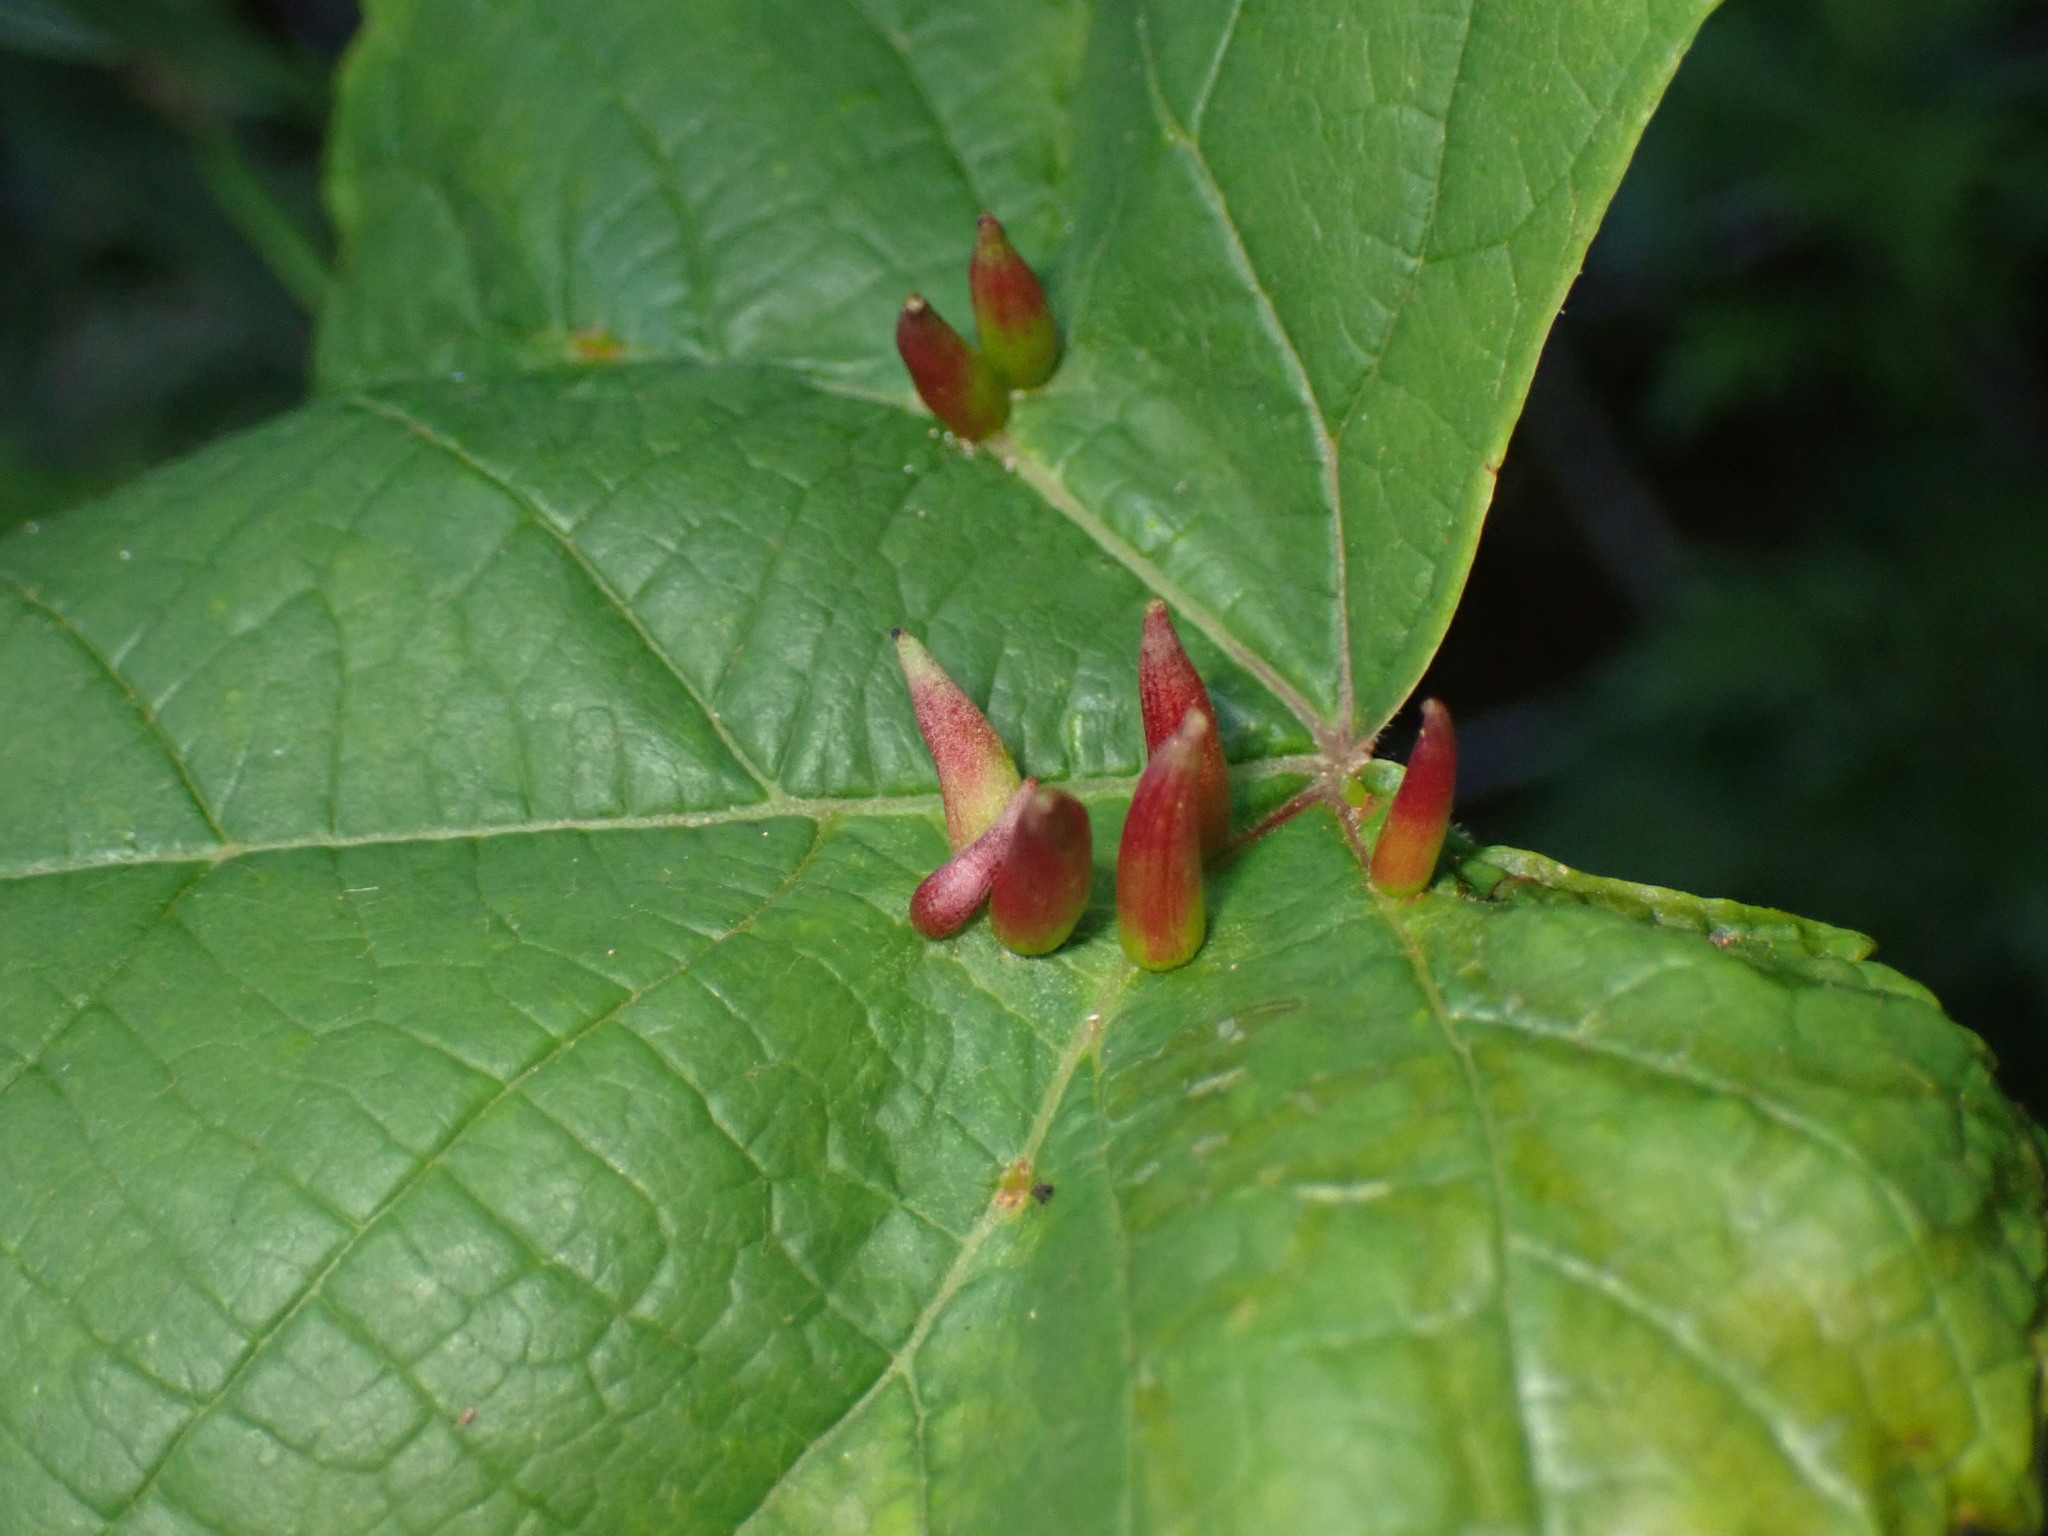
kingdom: Animalia
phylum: Arthropoda
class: Insecta
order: Diptera
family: Cecidomyiidae
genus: Ampelomyia
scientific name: Ampelomyia viticola
